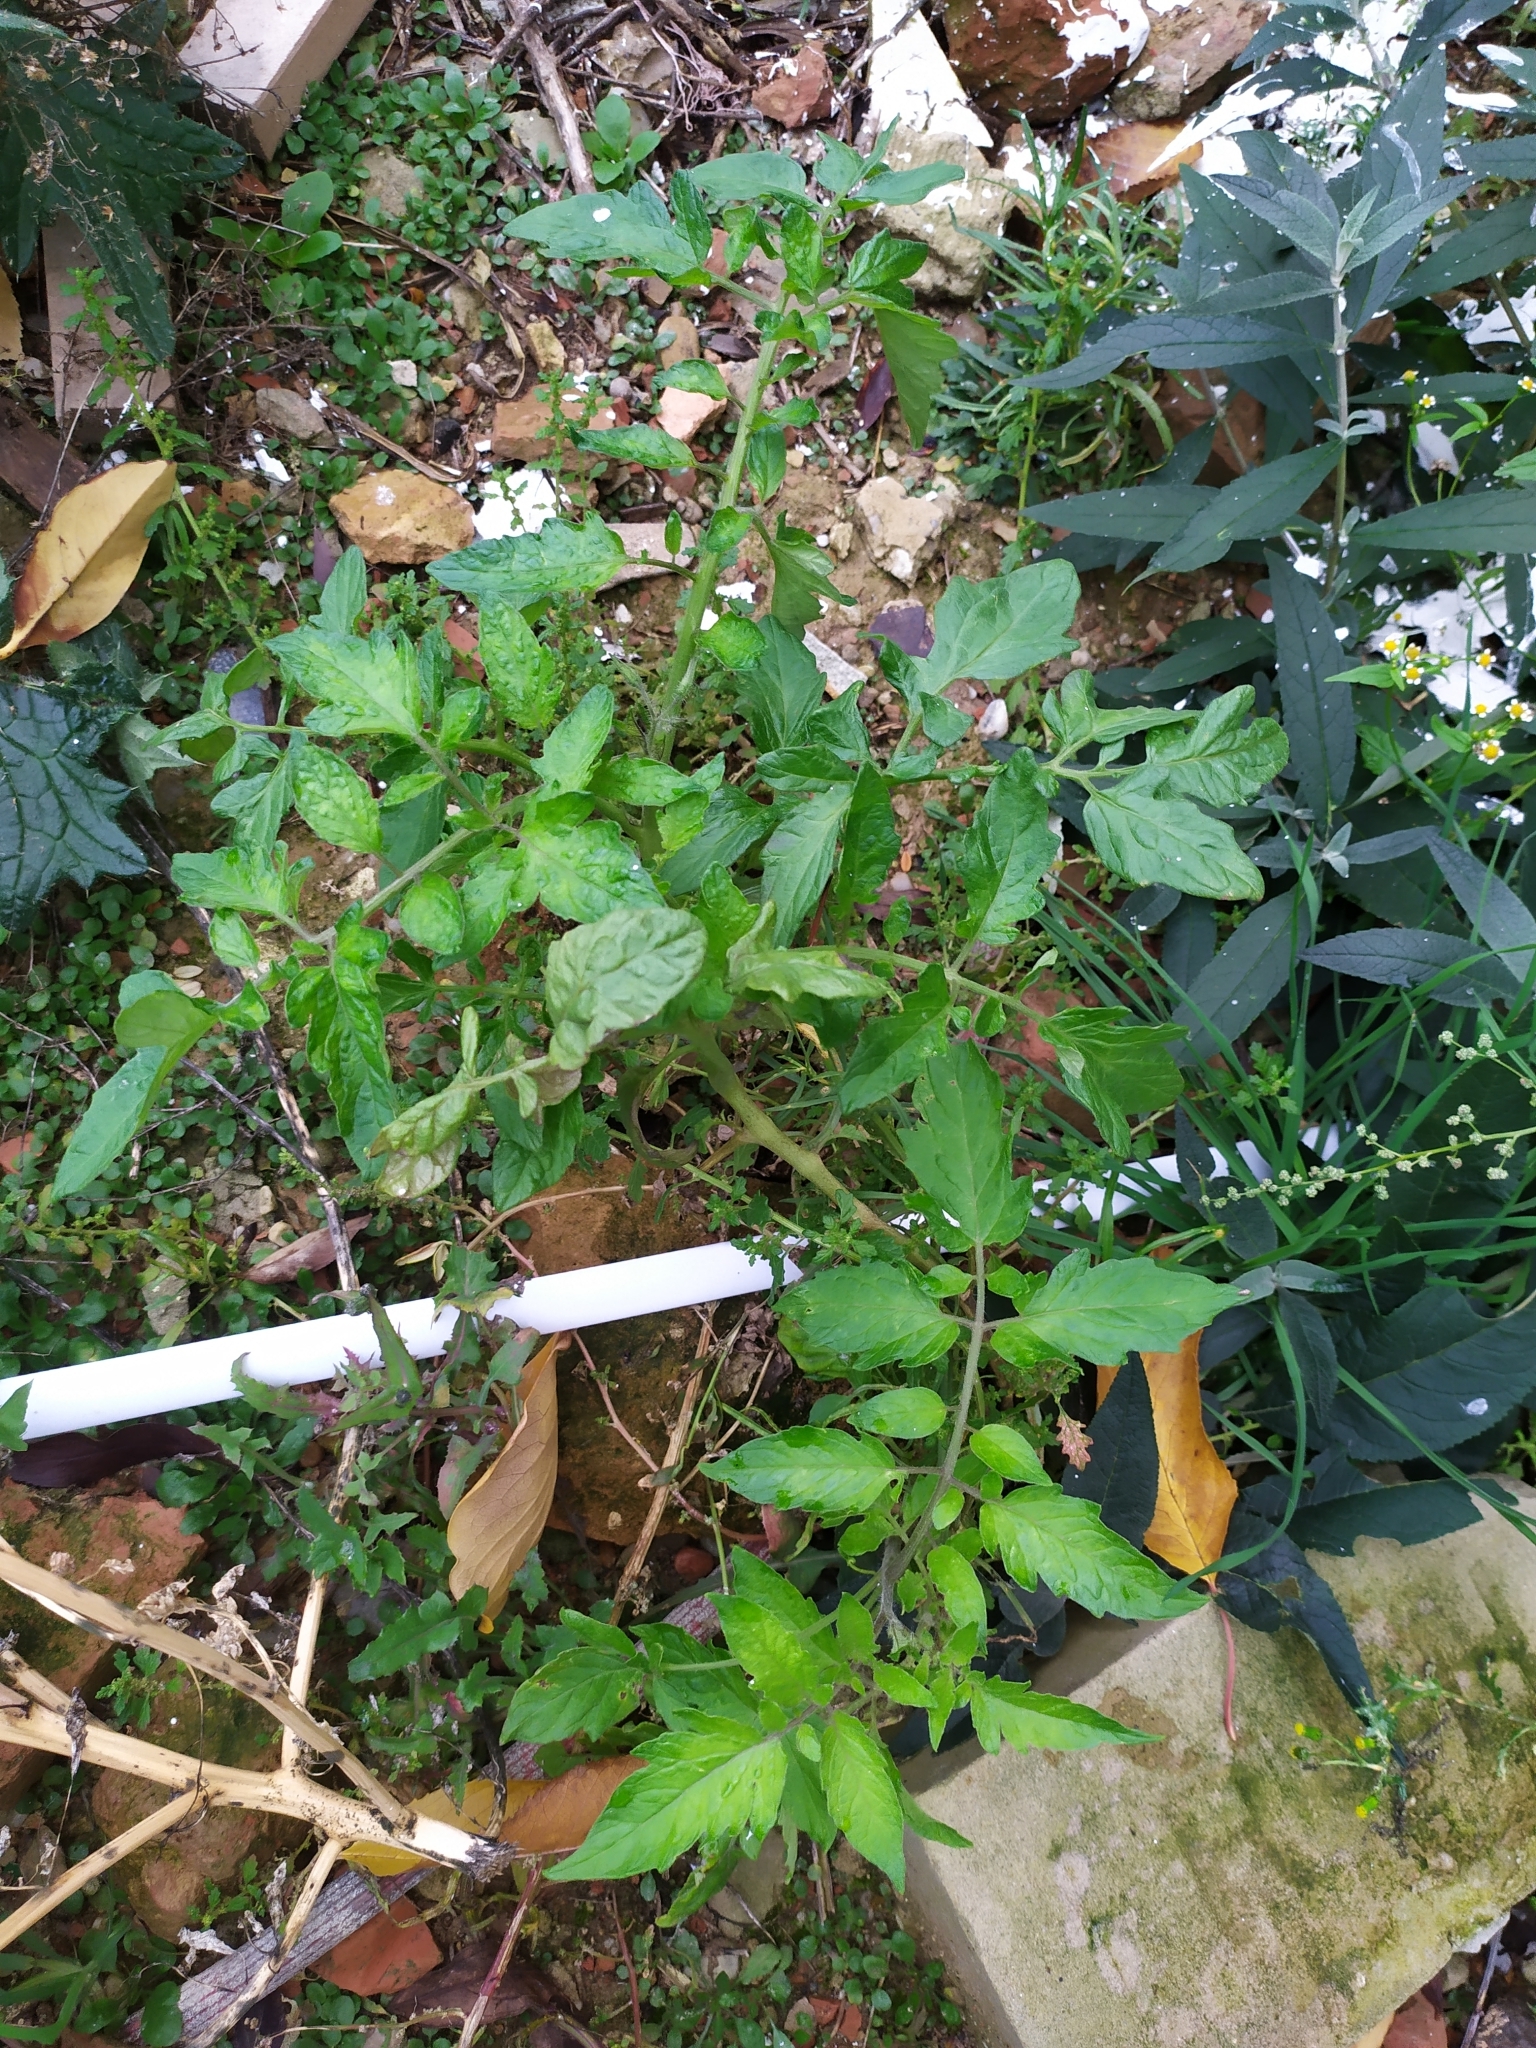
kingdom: Plantae
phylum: Tracheophyta
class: Magnoliopsida
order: Solanales
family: Solanaceae
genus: Solanum
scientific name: Solanum lycopersicum
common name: Garden tomato
